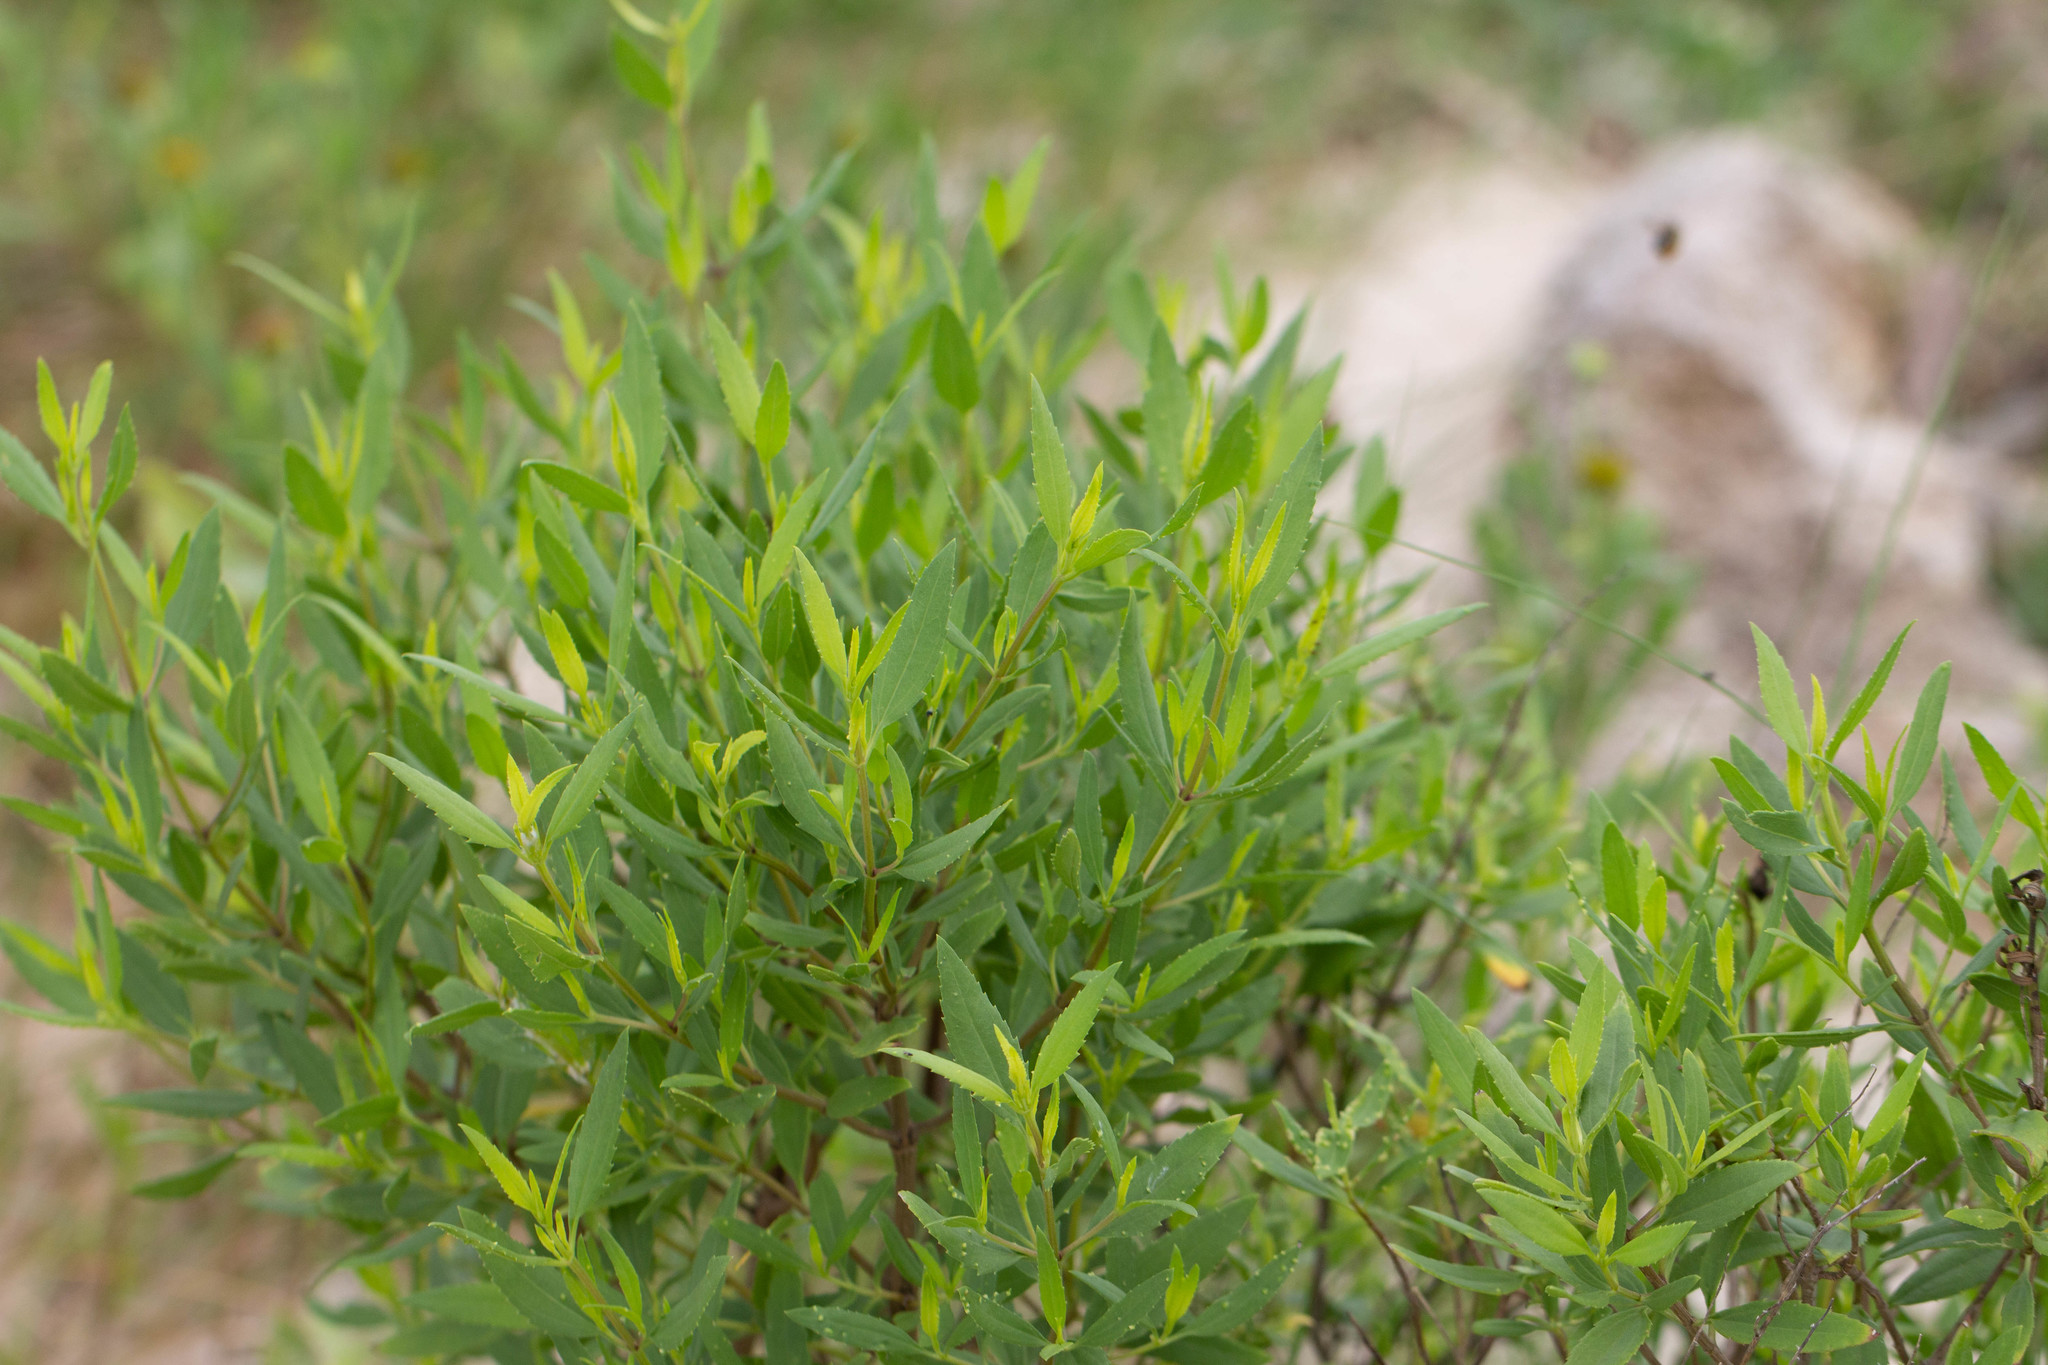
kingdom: Plantae
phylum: Tracheophyta
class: Magnoliopsida
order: Asterales
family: Asteraceae
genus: Iva
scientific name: Iva frutescens
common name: Big-leaved marsh-elder
